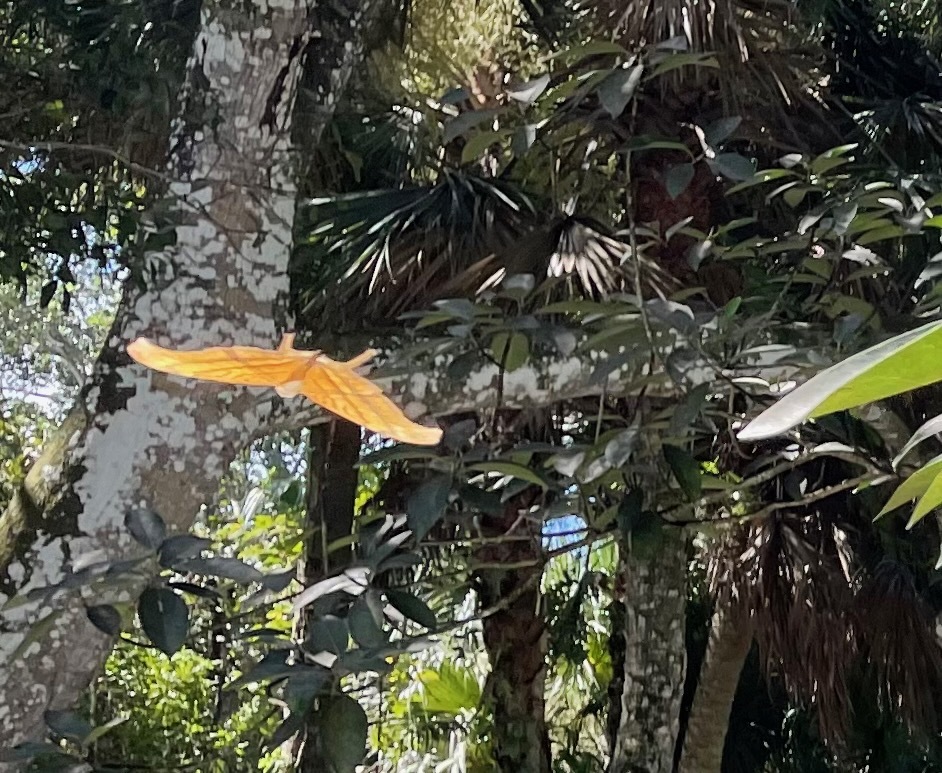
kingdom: Animalia
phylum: Arthropoda
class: Insecta
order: Lepidoptera
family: Nymphalidae
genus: Marpesia
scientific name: Marpesia petreus
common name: Red dagger wing
